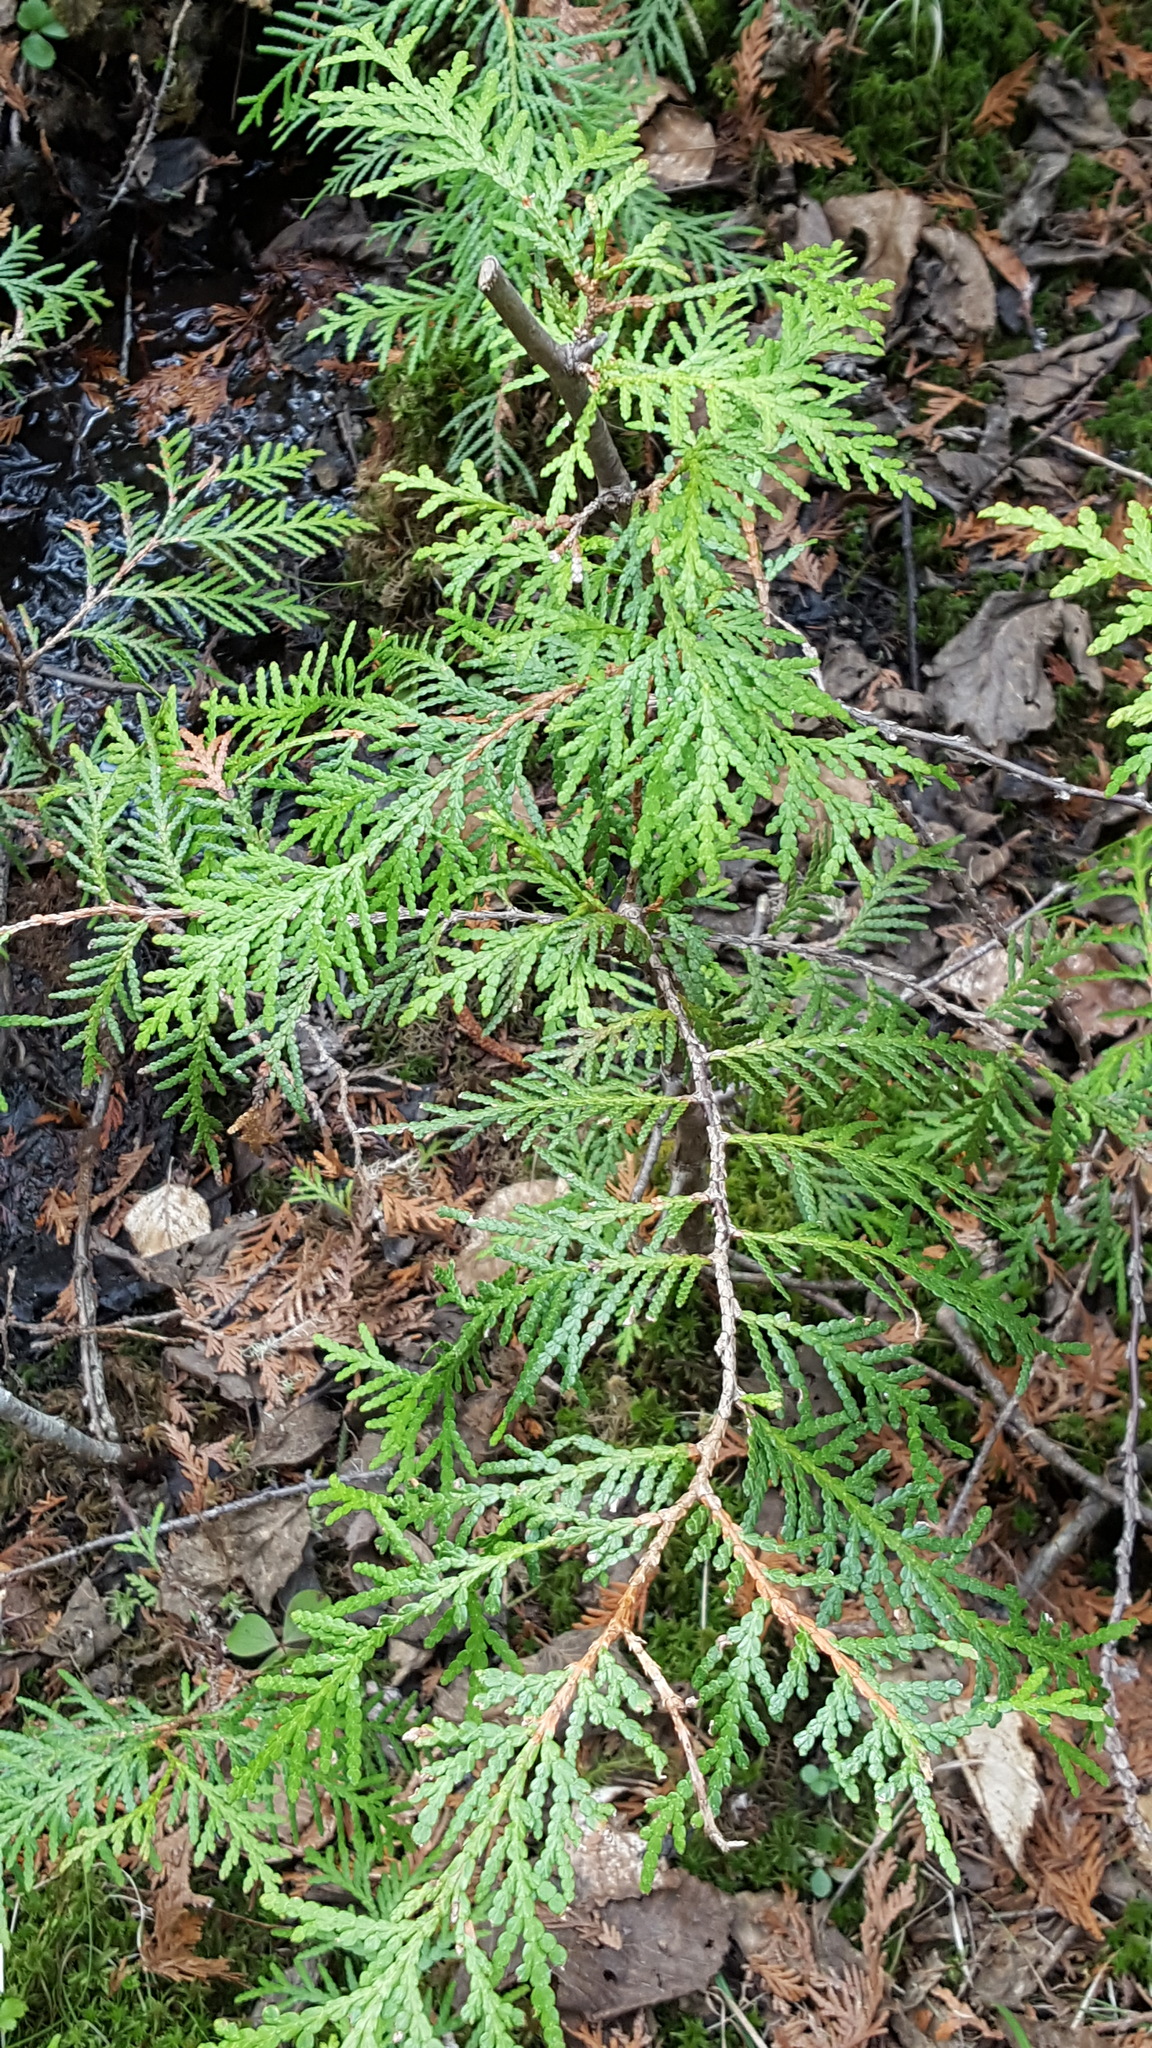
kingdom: Plantae
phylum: Tracheophyta
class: Pinopsida
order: Pinales
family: Cupressaceae
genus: Thuja
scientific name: Thuja occidentalis
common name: Northern white-cedar
